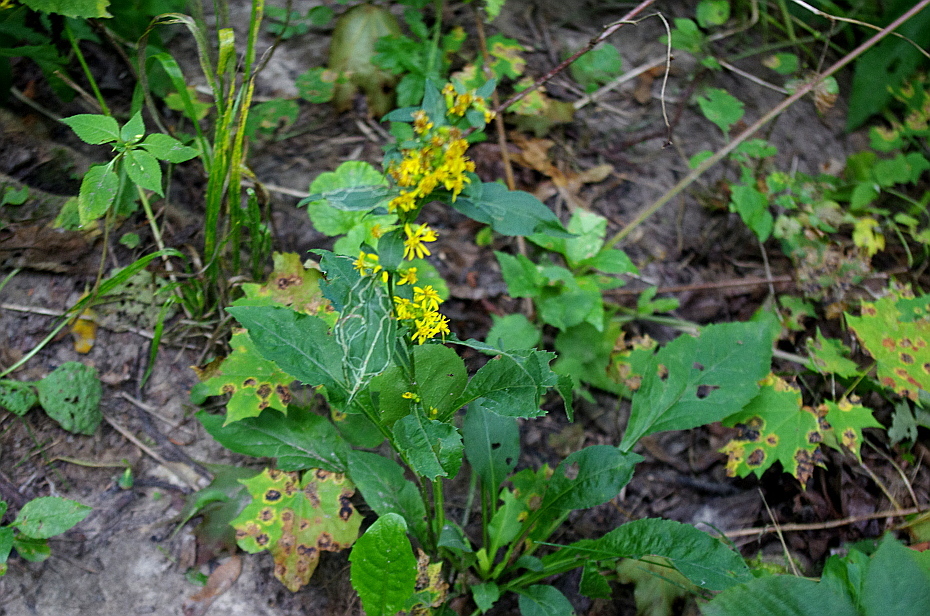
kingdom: Plantae
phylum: Tracheophyta
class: Magnoliopsida
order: Asterales
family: Asteraceae
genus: Solidago
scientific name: Solidago virgaurea
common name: Goldenrod
